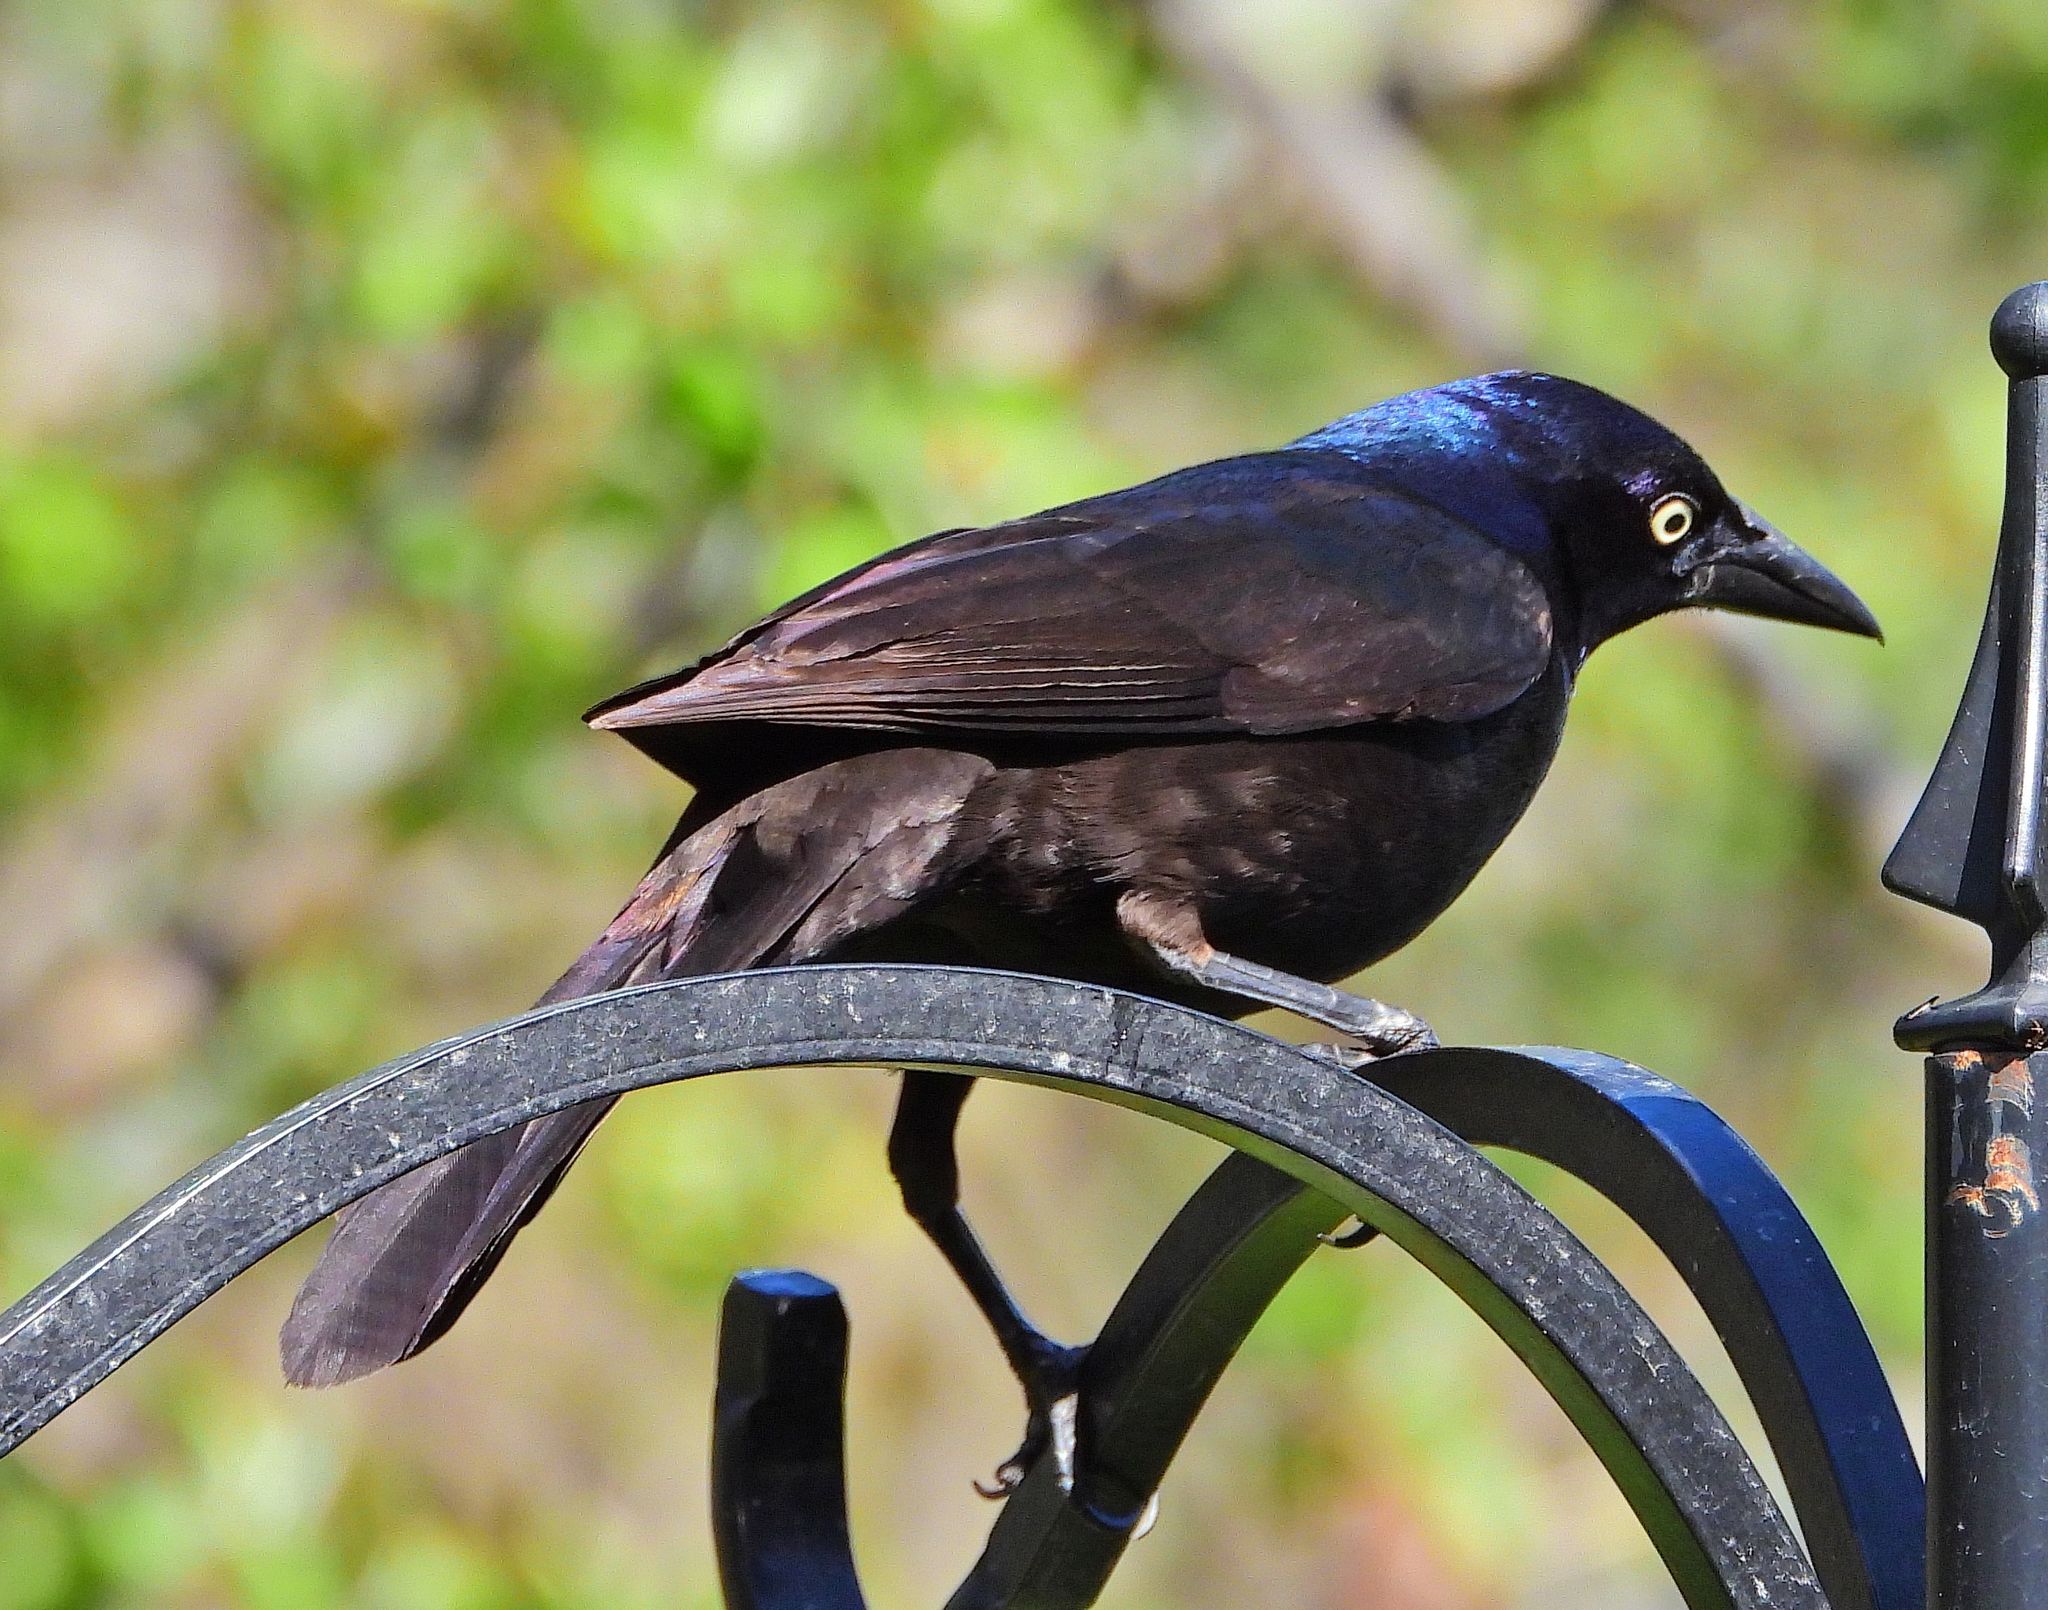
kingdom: Animalia
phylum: Chordata
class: Aves
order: Passeriformes
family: Icteridae
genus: Quiscalus
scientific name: Quiscalus quiscula
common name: Common grackle
